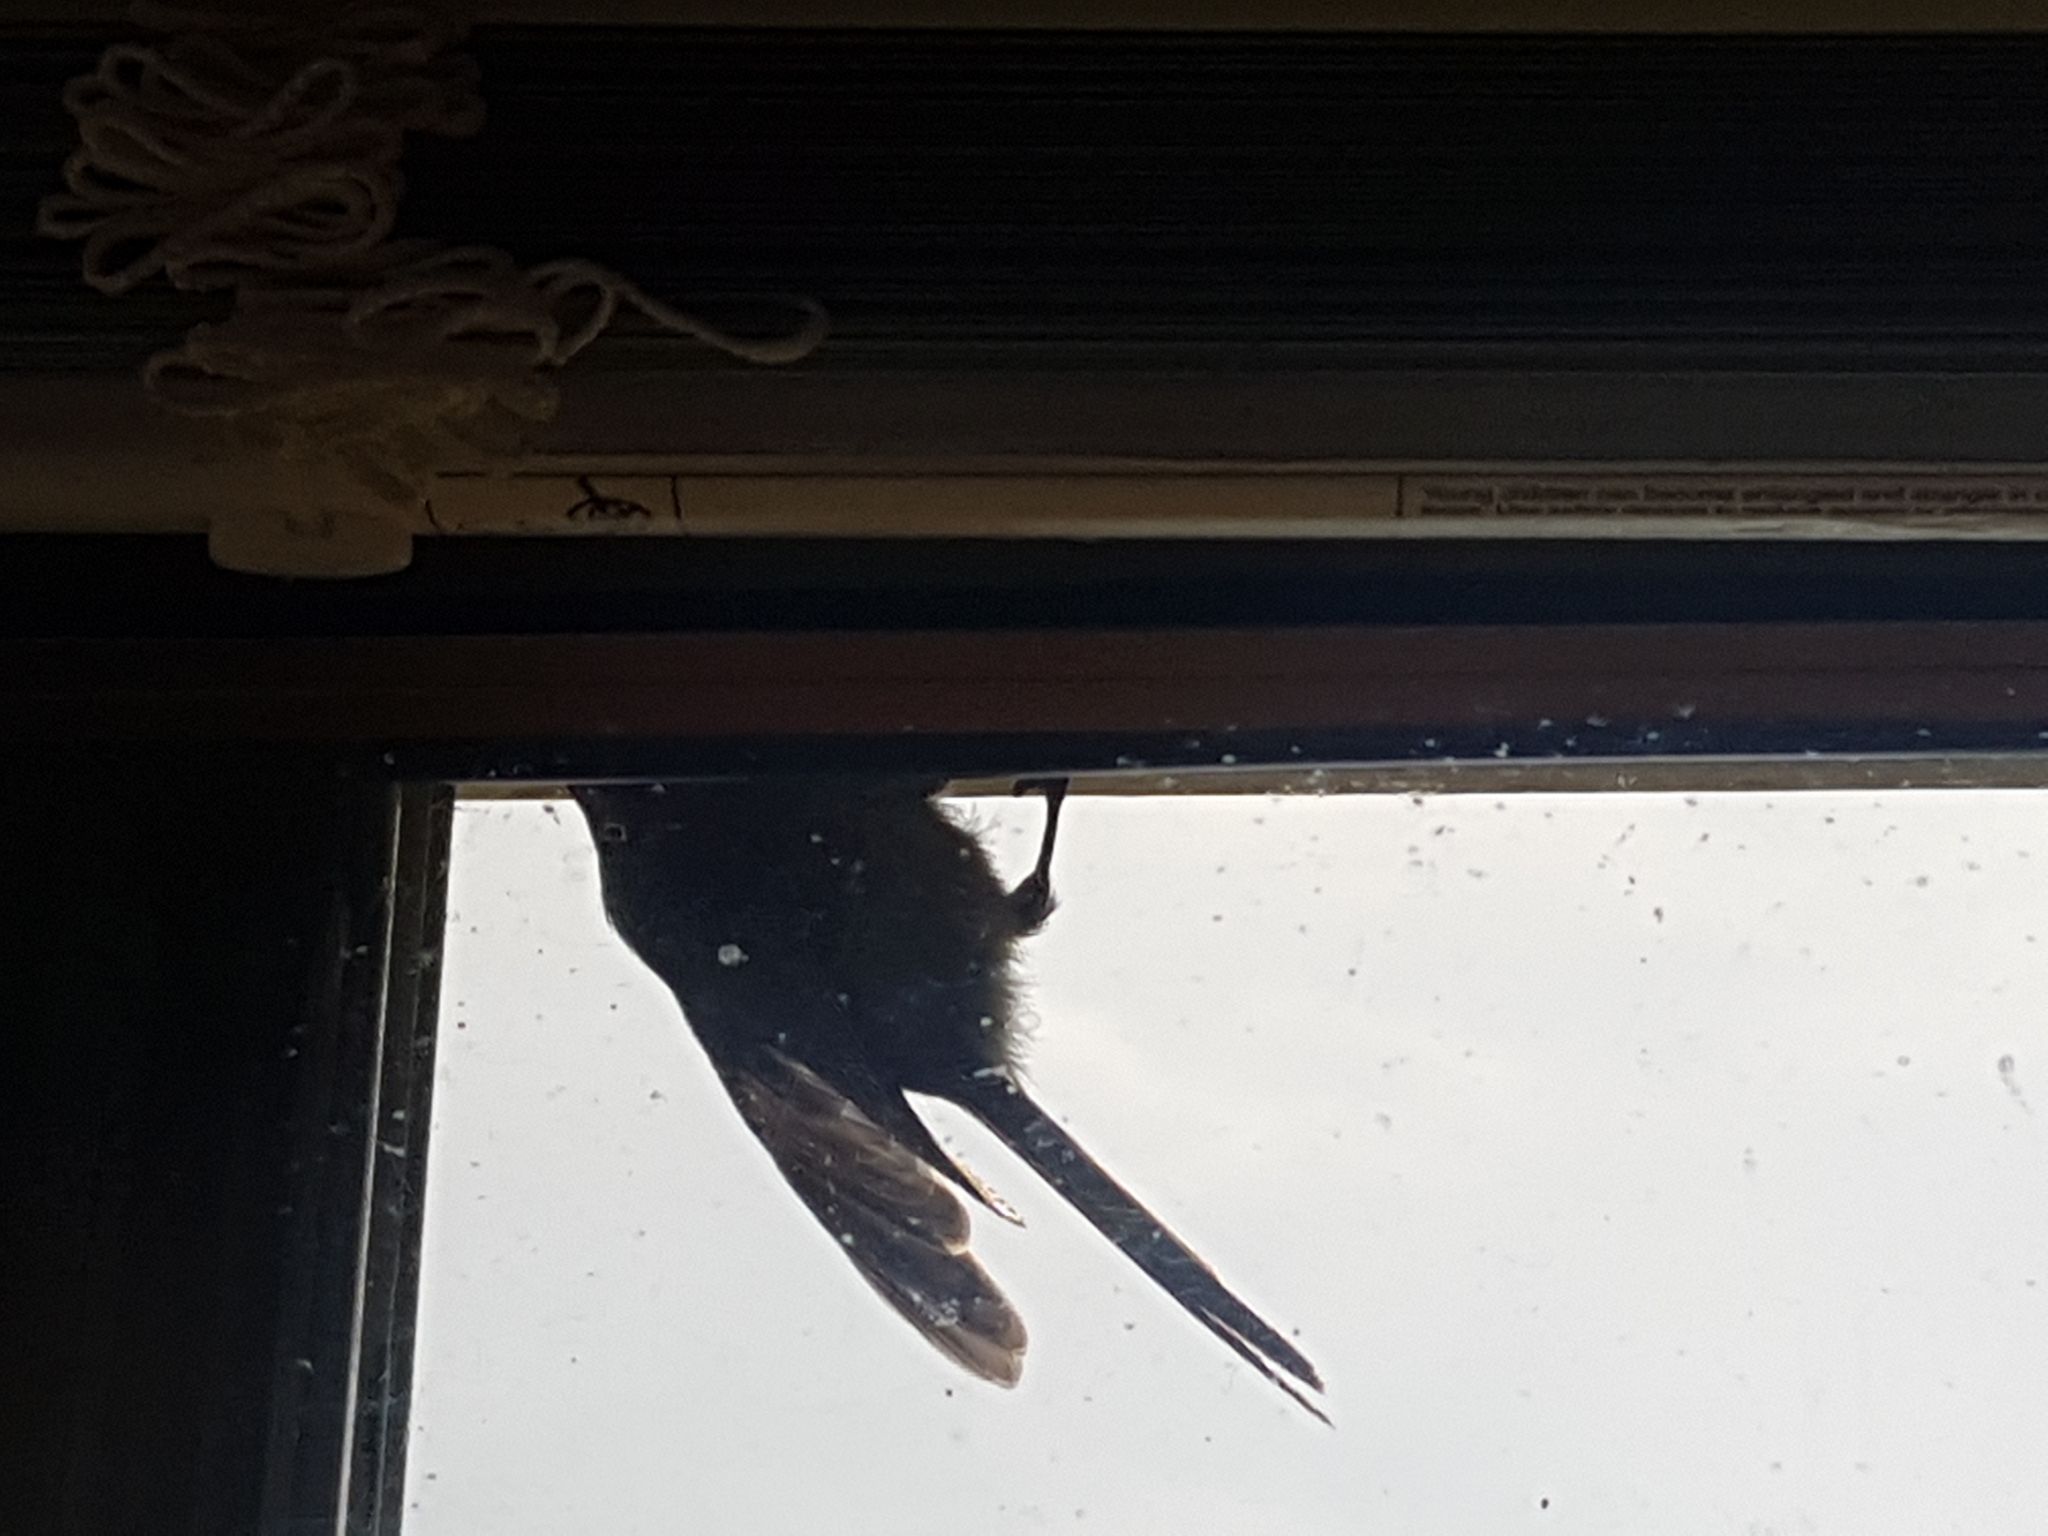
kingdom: Animalia
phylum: Chordata
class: Aves
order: Passeriformes
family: Aegithalidae
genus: Psaltriparus
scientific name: Psaltriparus minimus
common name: American bushtit
